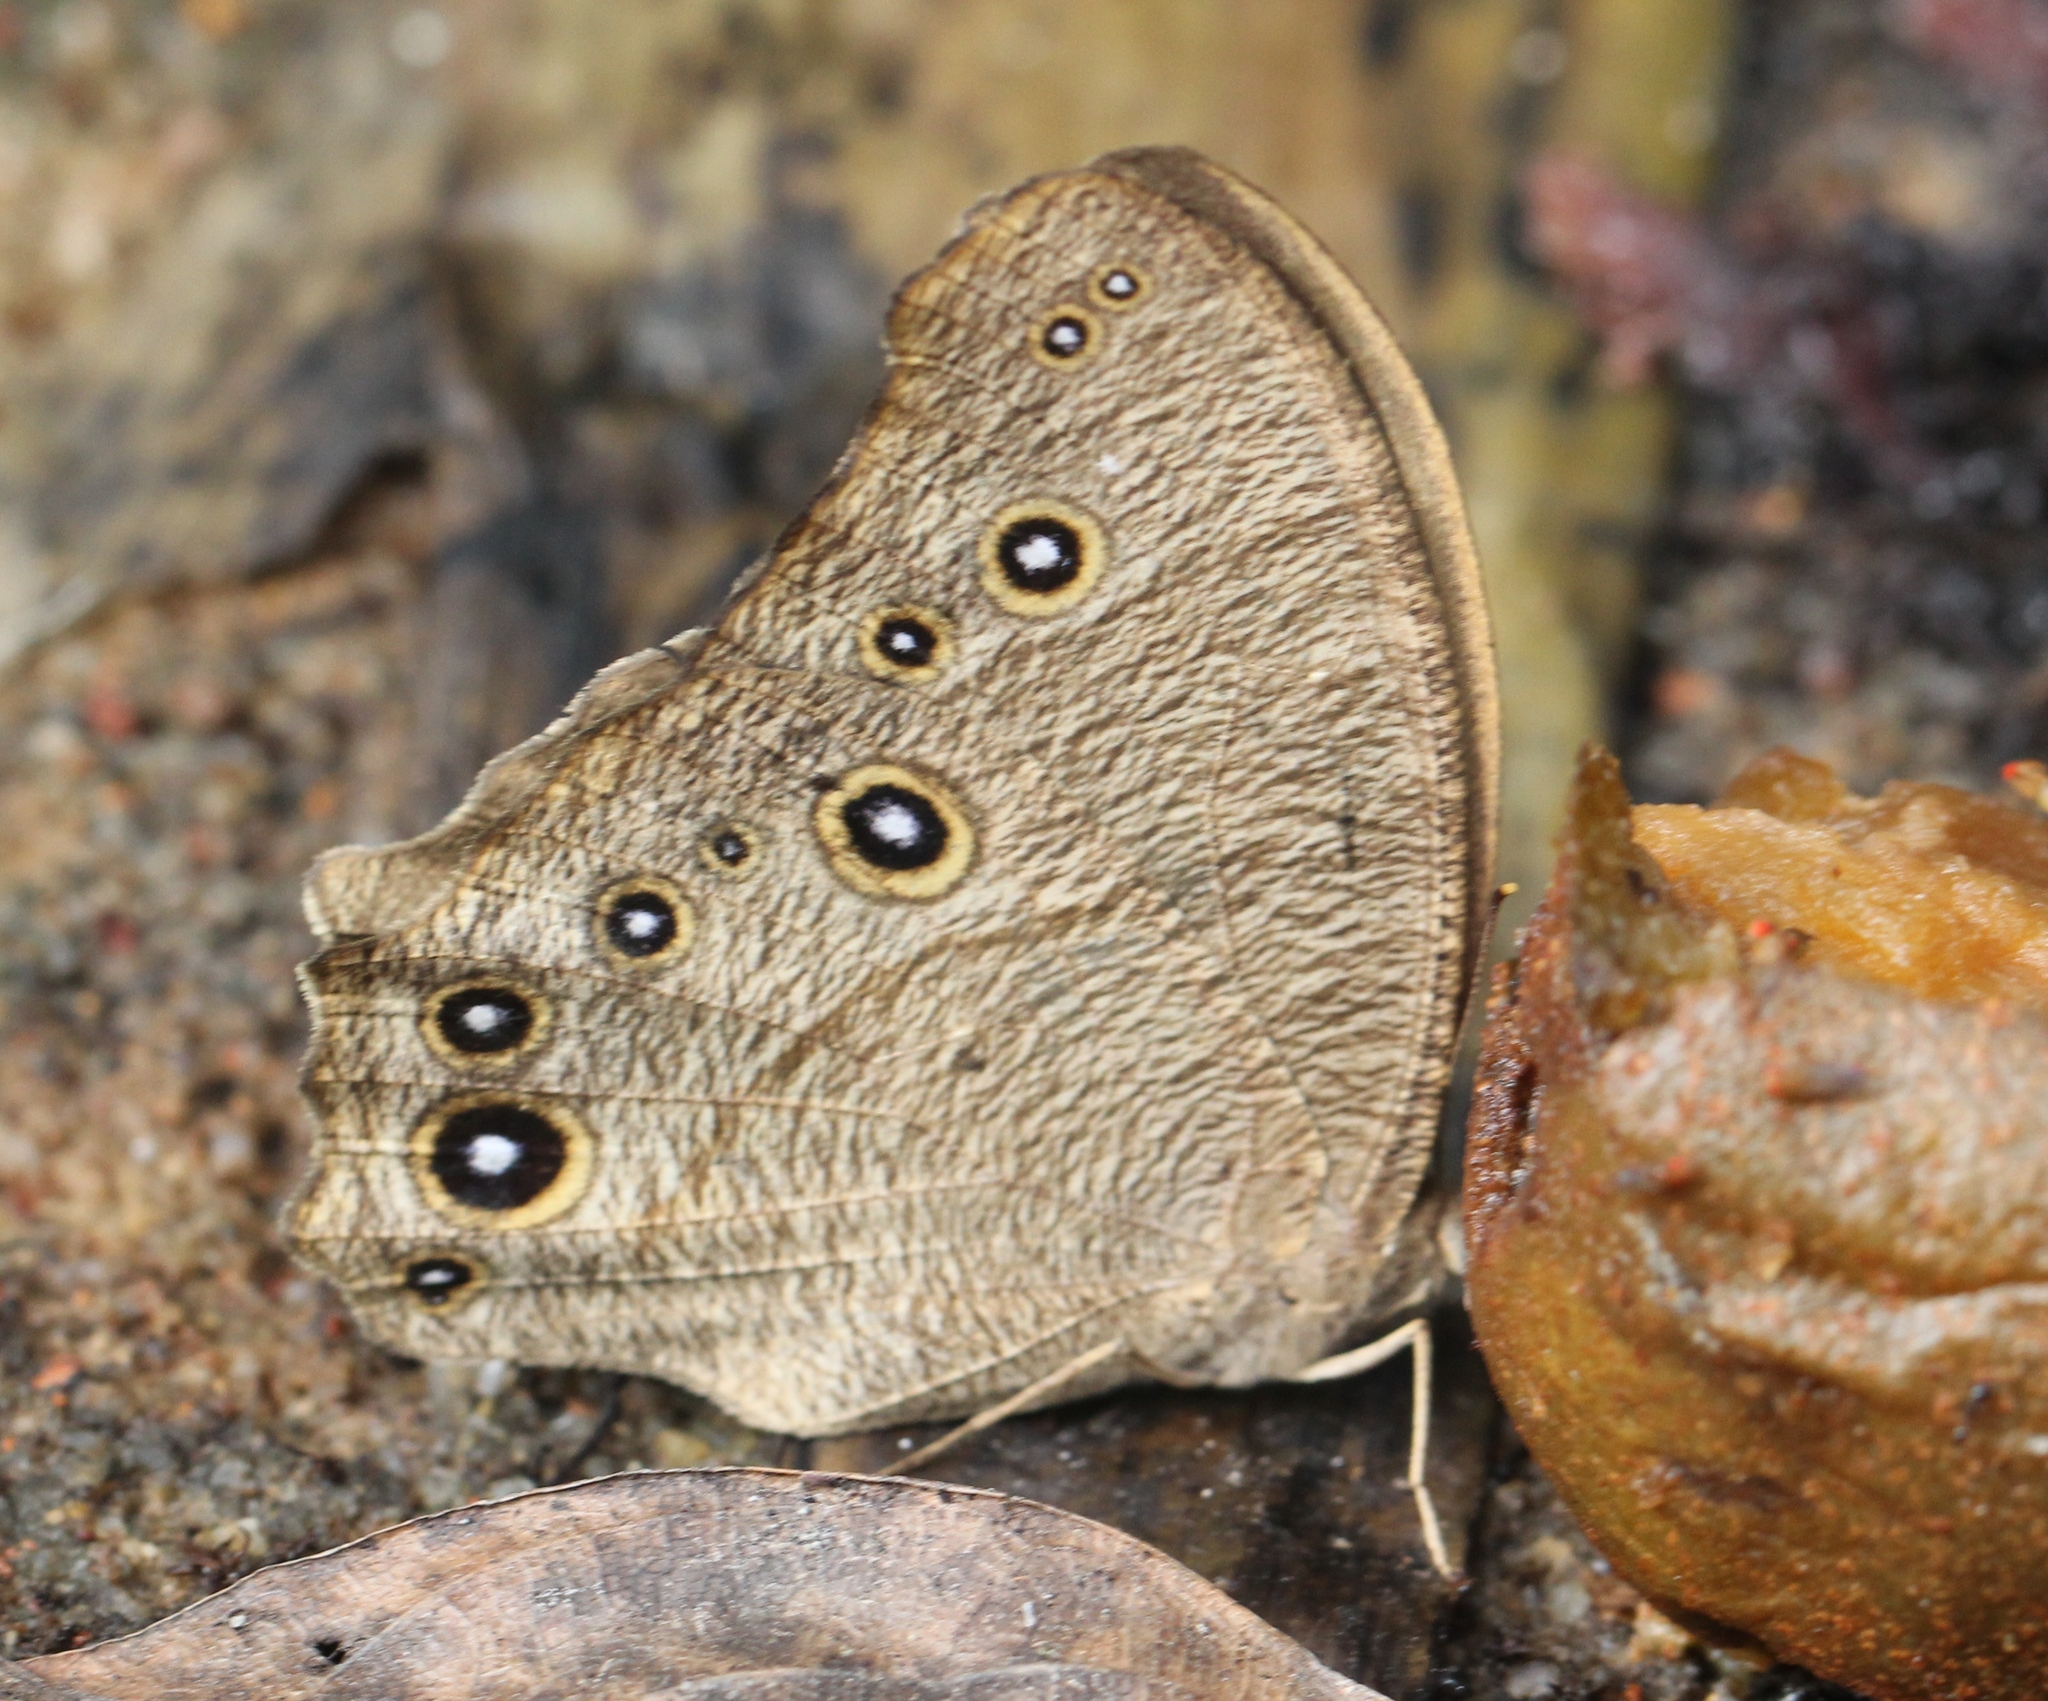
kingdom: Animalia
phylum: Arthropoda
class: Insecta
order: Lepidoptera
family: Nymphalidae
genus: Melanitis
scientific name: Melanitis leda
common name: Twilight brown
